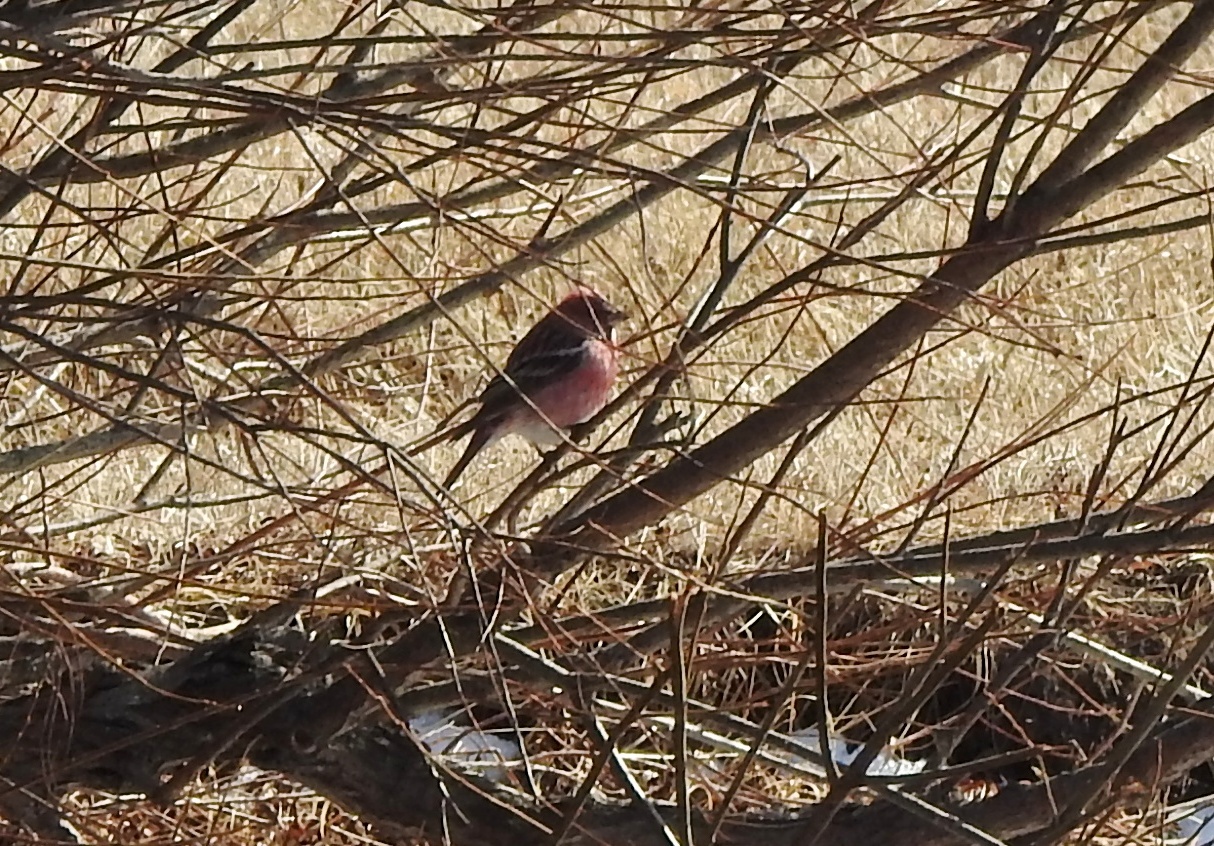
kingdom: Animalia
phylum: Chordata
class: Aves
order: Passeriformes
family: Fringillidae
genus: Carpodacus
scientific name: Carpodacus roseus
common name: Pallas's rosefinch
